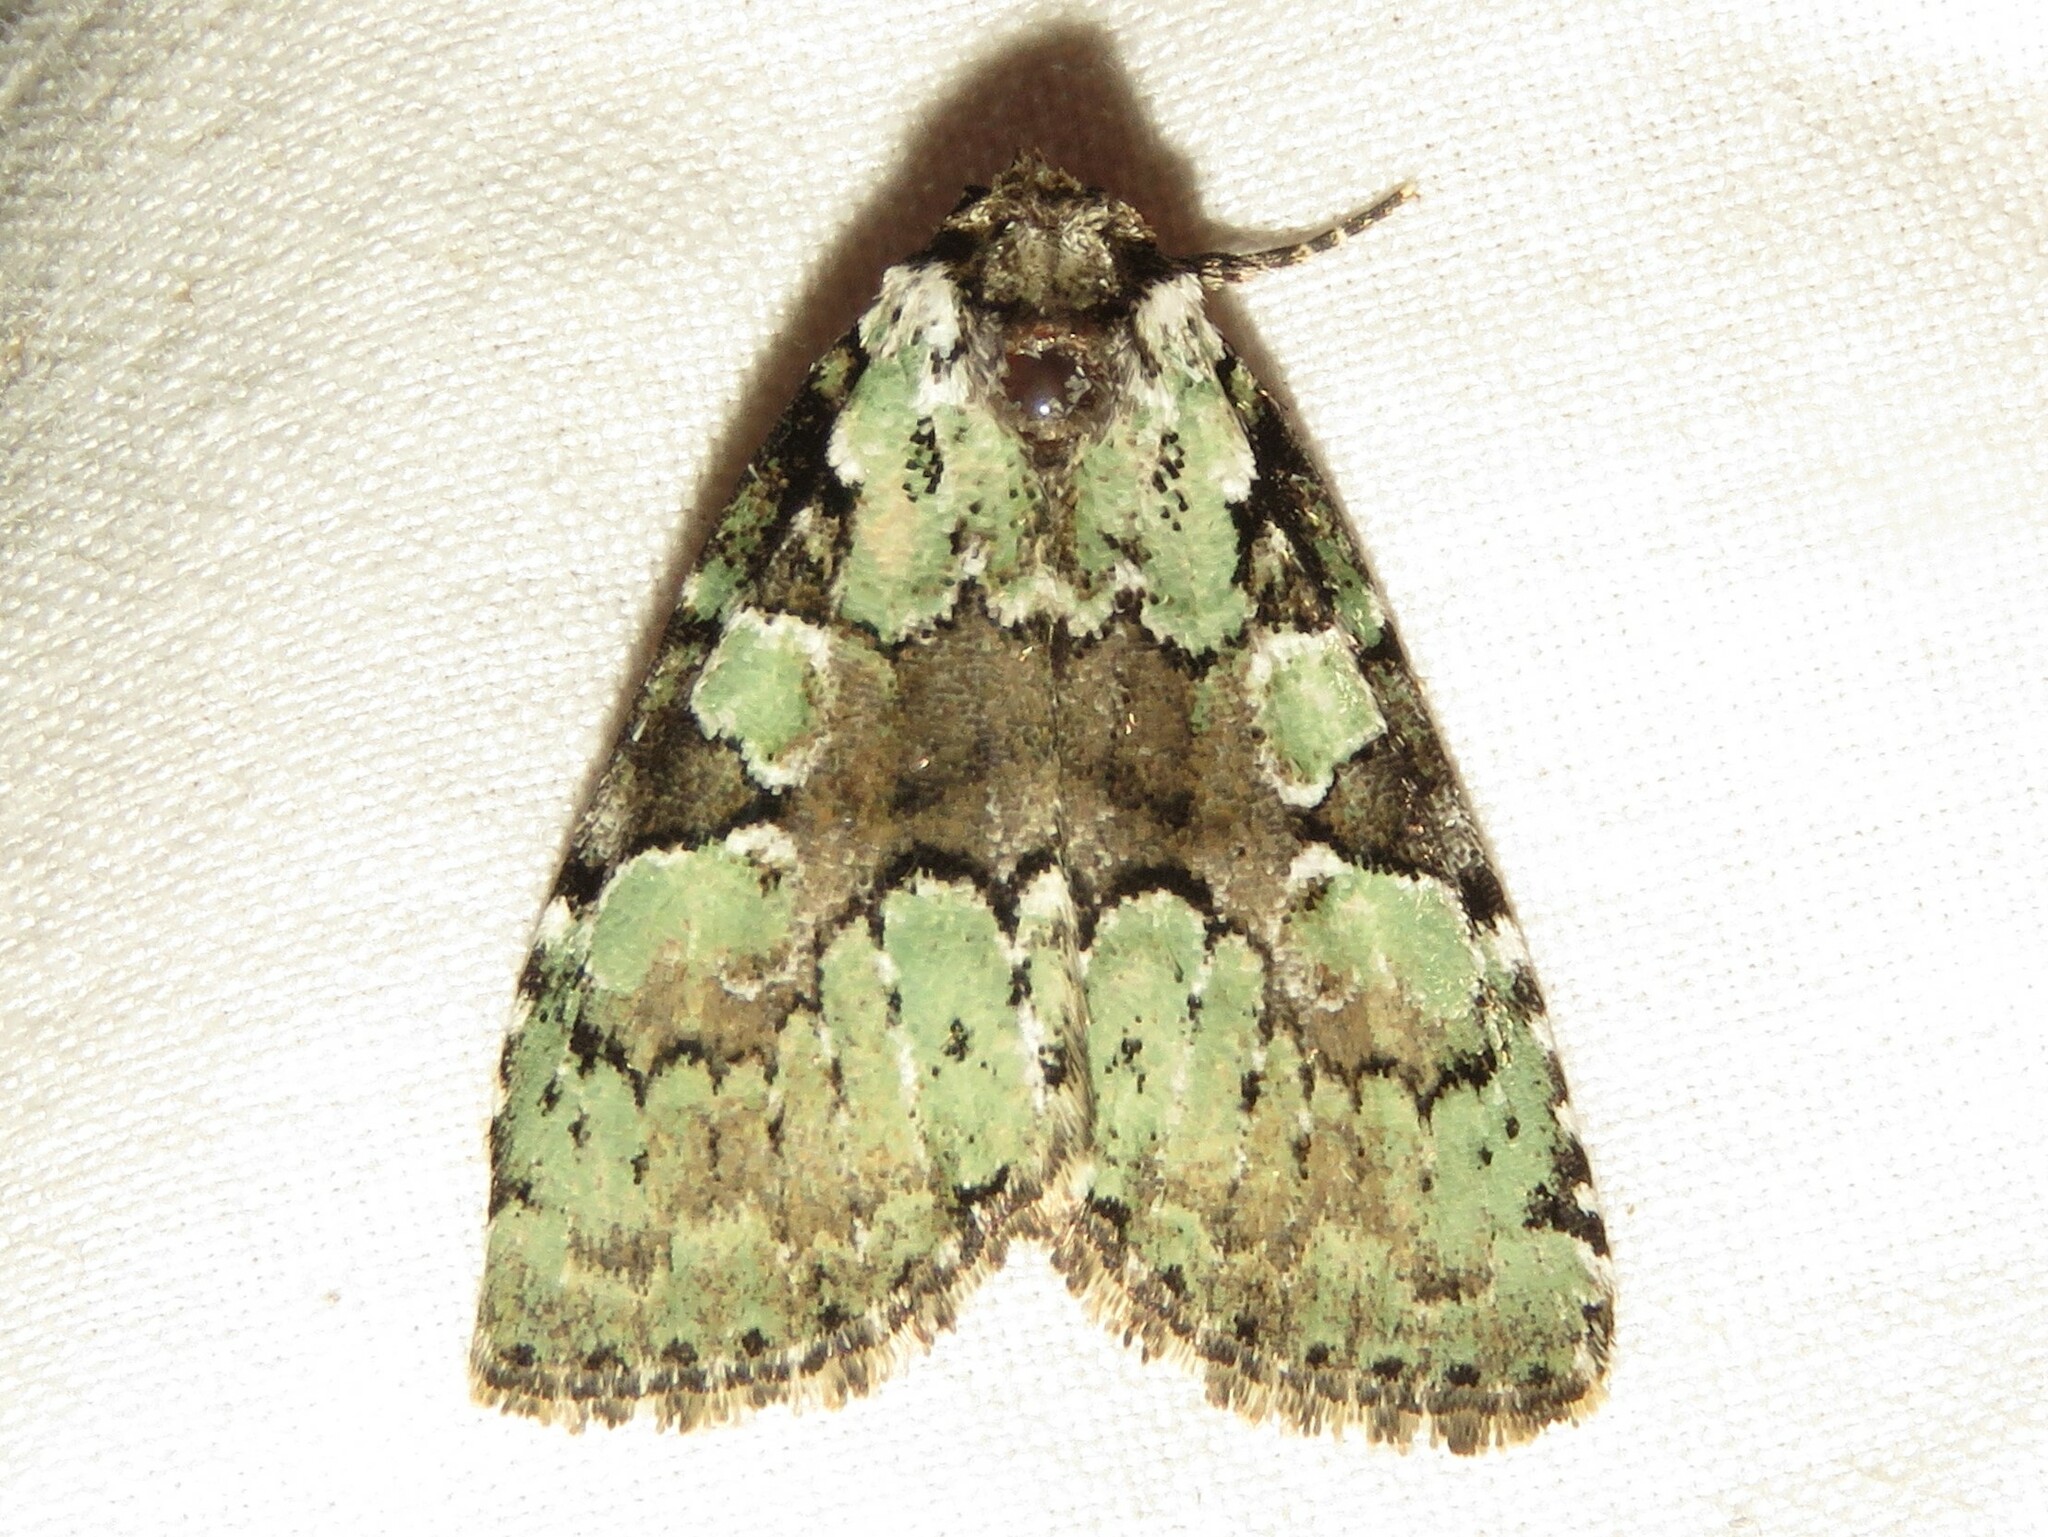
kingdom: Animalia
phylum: Arthropoda
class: Insecta
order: Lepidoptera
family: Noctuidae
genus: Leuconycta
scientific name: Leuconycta lepidula
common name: Marbled-green leuconycta moth
